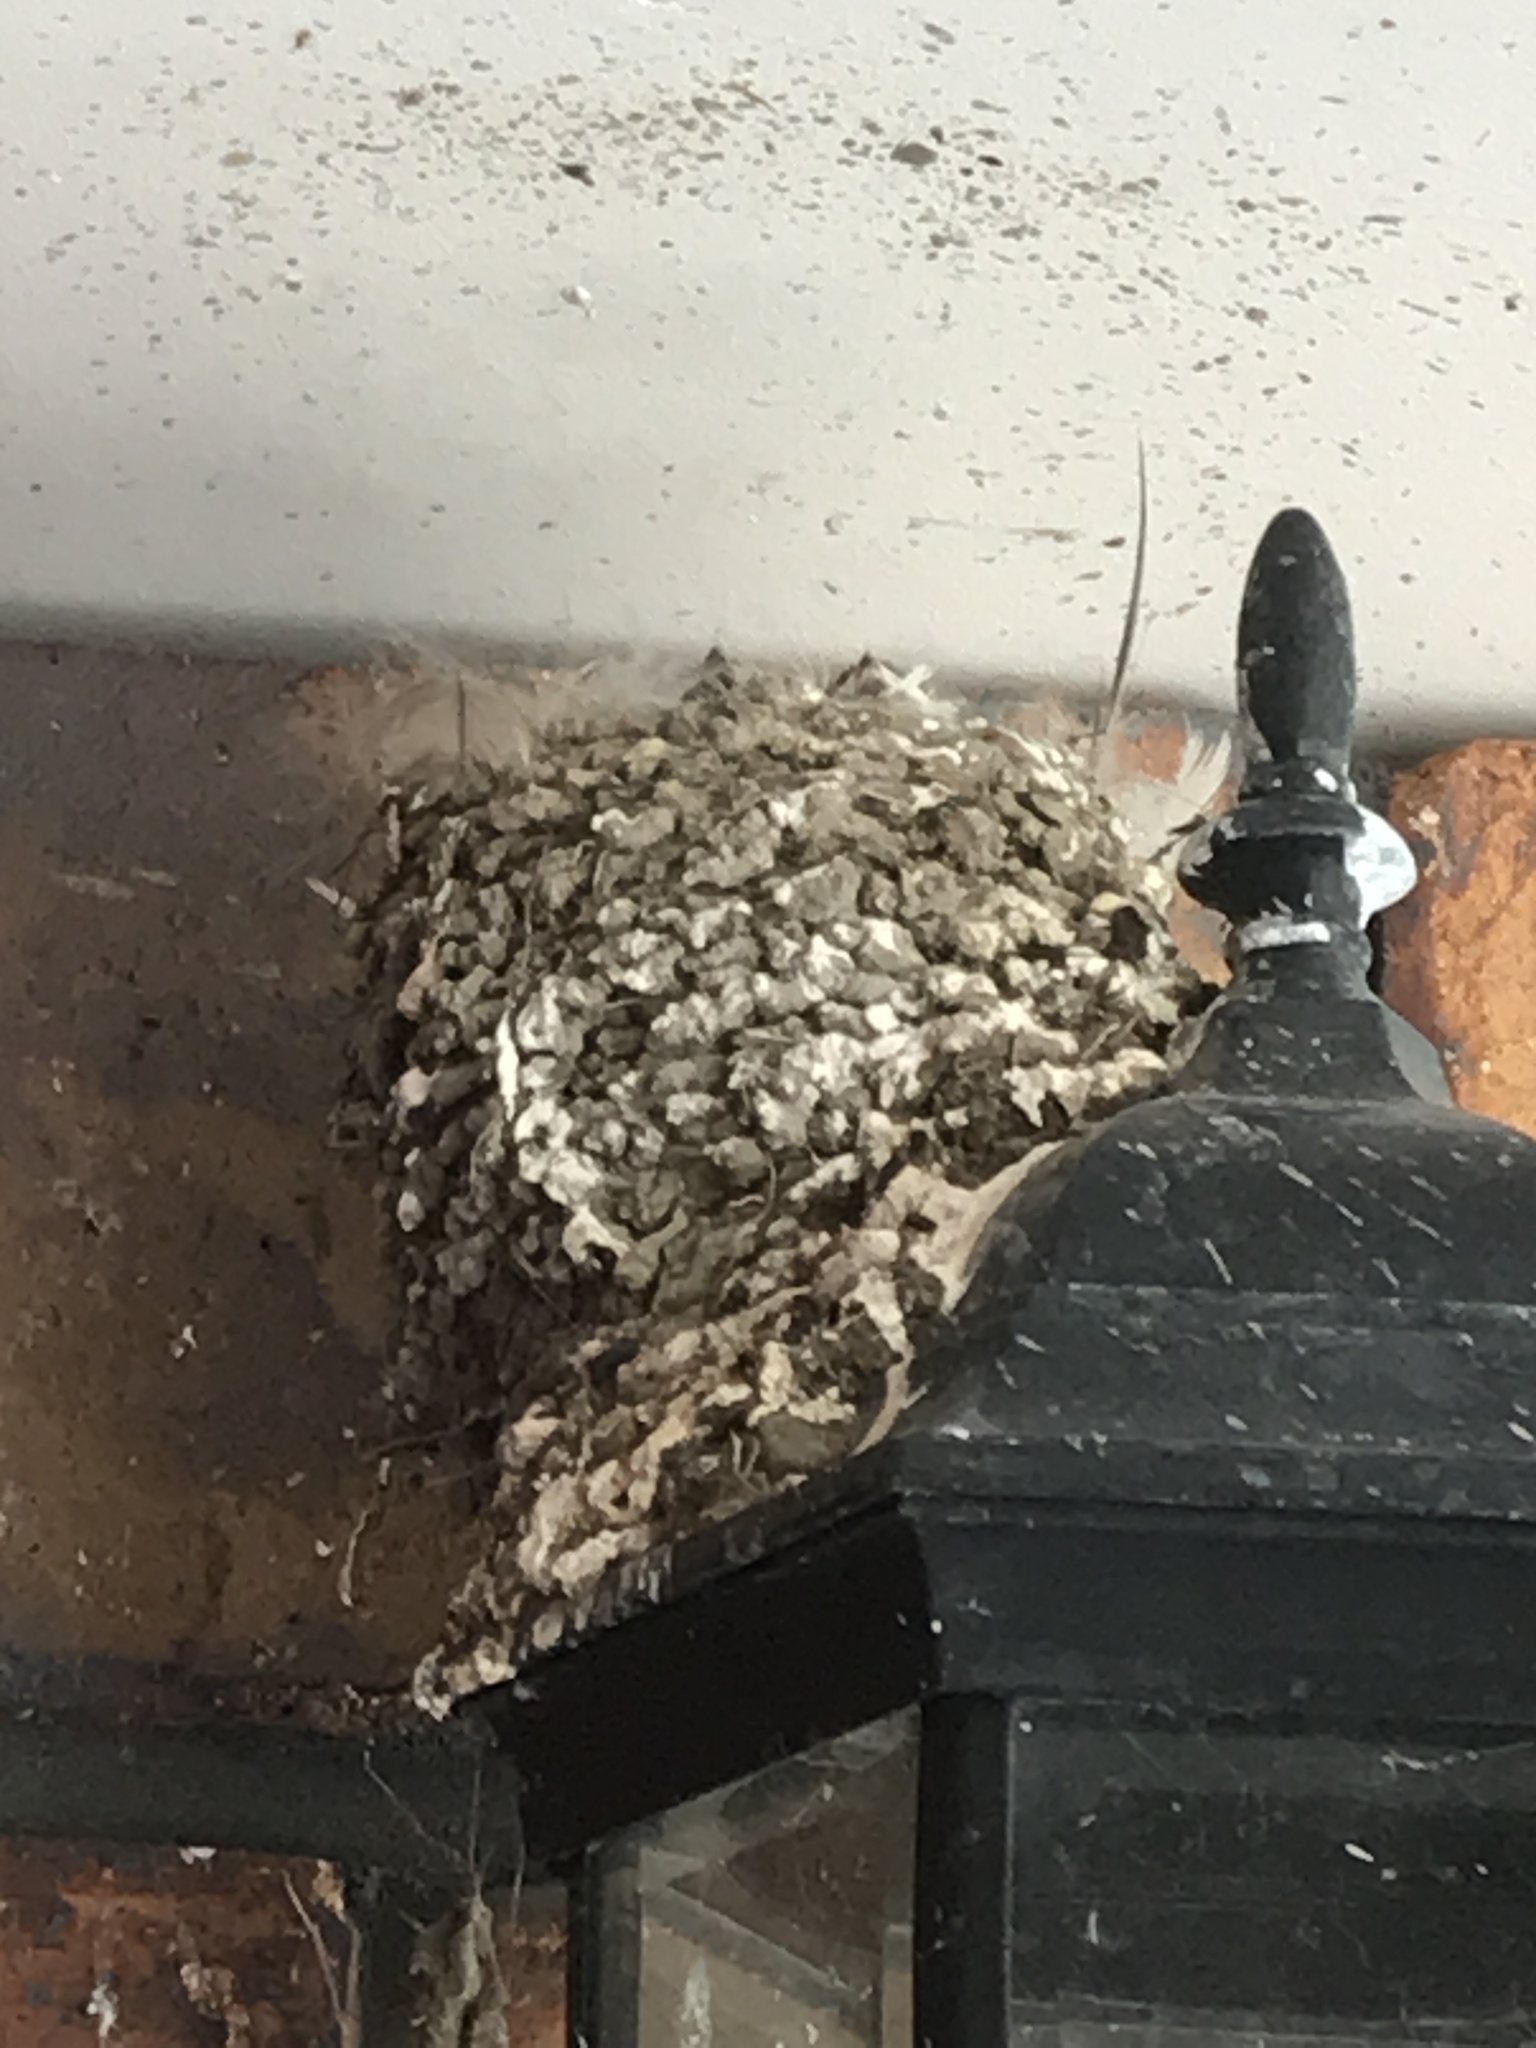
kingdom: Animalia
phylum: Chordata
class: Aves
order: Passeriformes
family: Hirundinidae
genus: Hirundo
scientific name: Hirundo neoxena
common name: Welcome swallow
